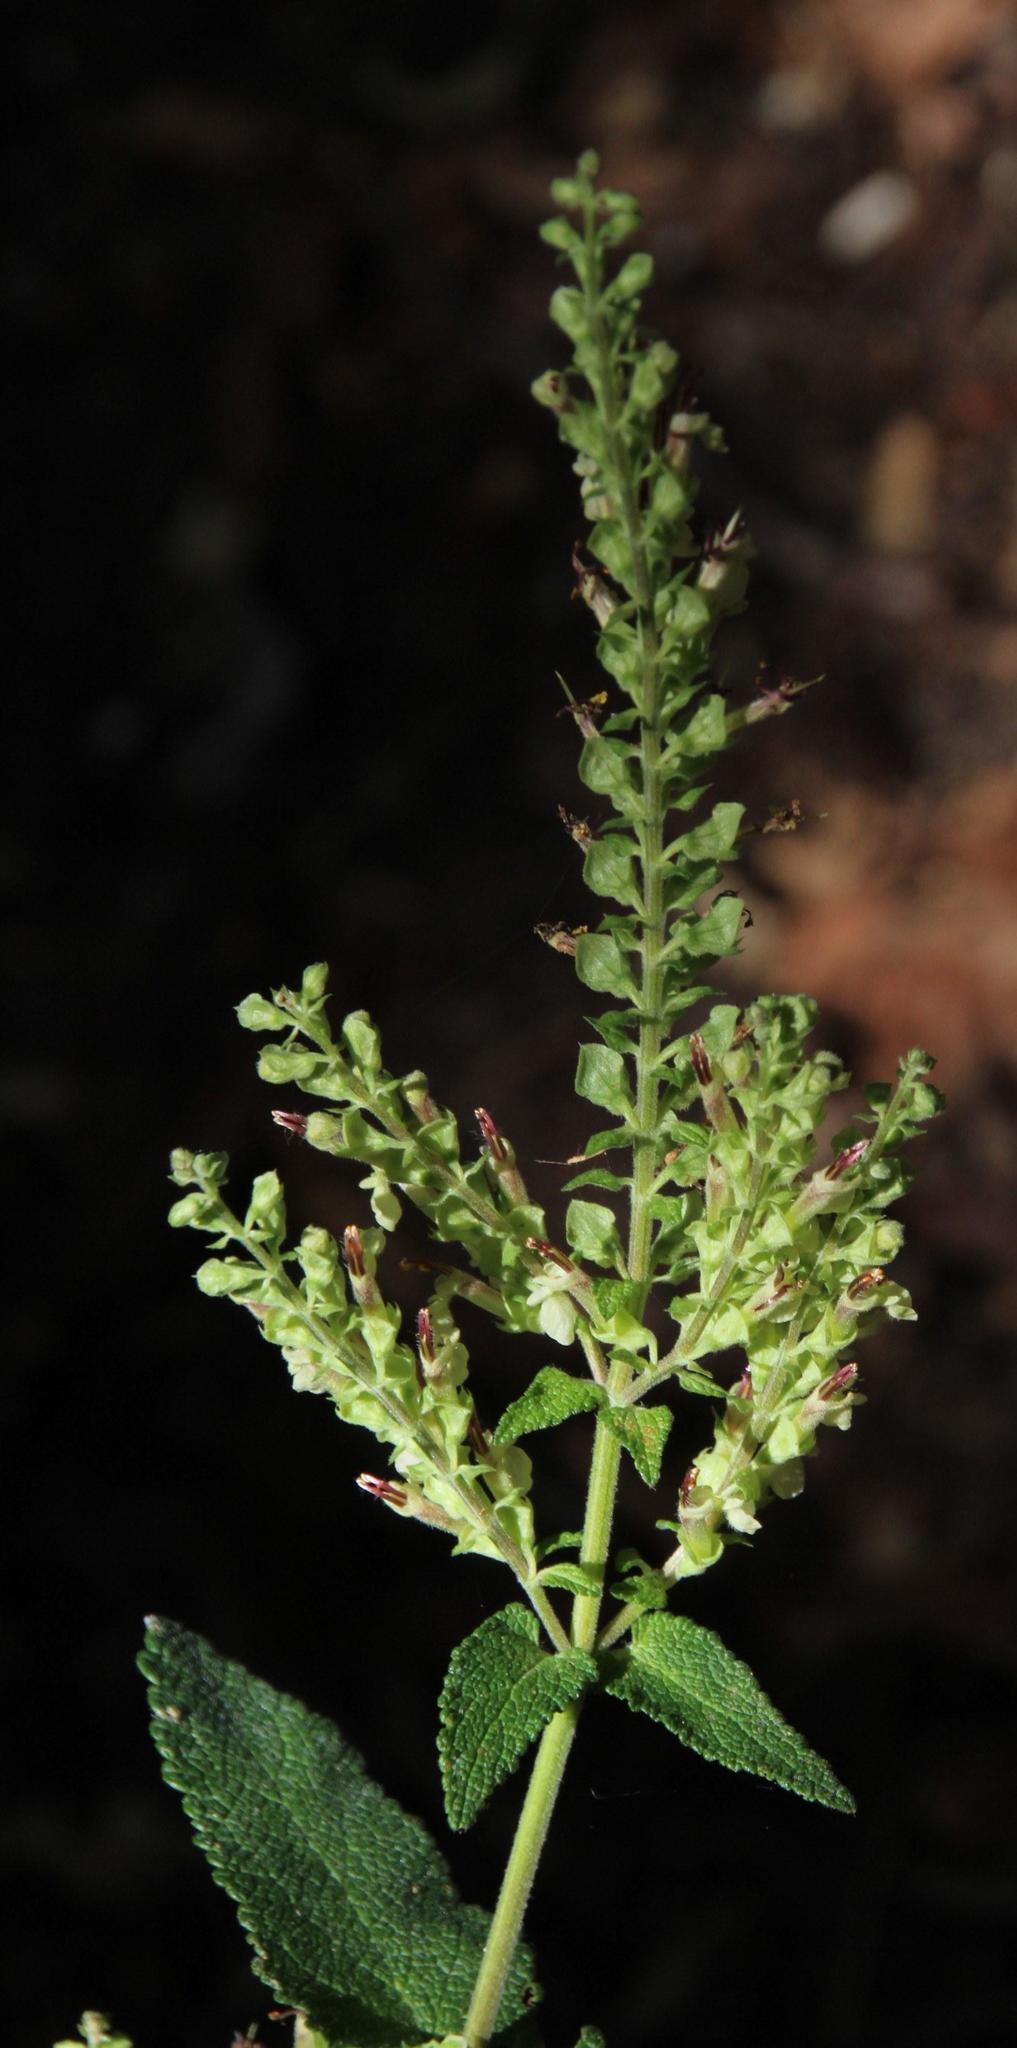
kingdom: Plantae
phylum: Tracheophyta
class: Magnoliopsida
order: Lamiales
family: Lamiaceae
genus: Teucrium
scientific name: Teucrium scorodonia
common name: Woodland germander
